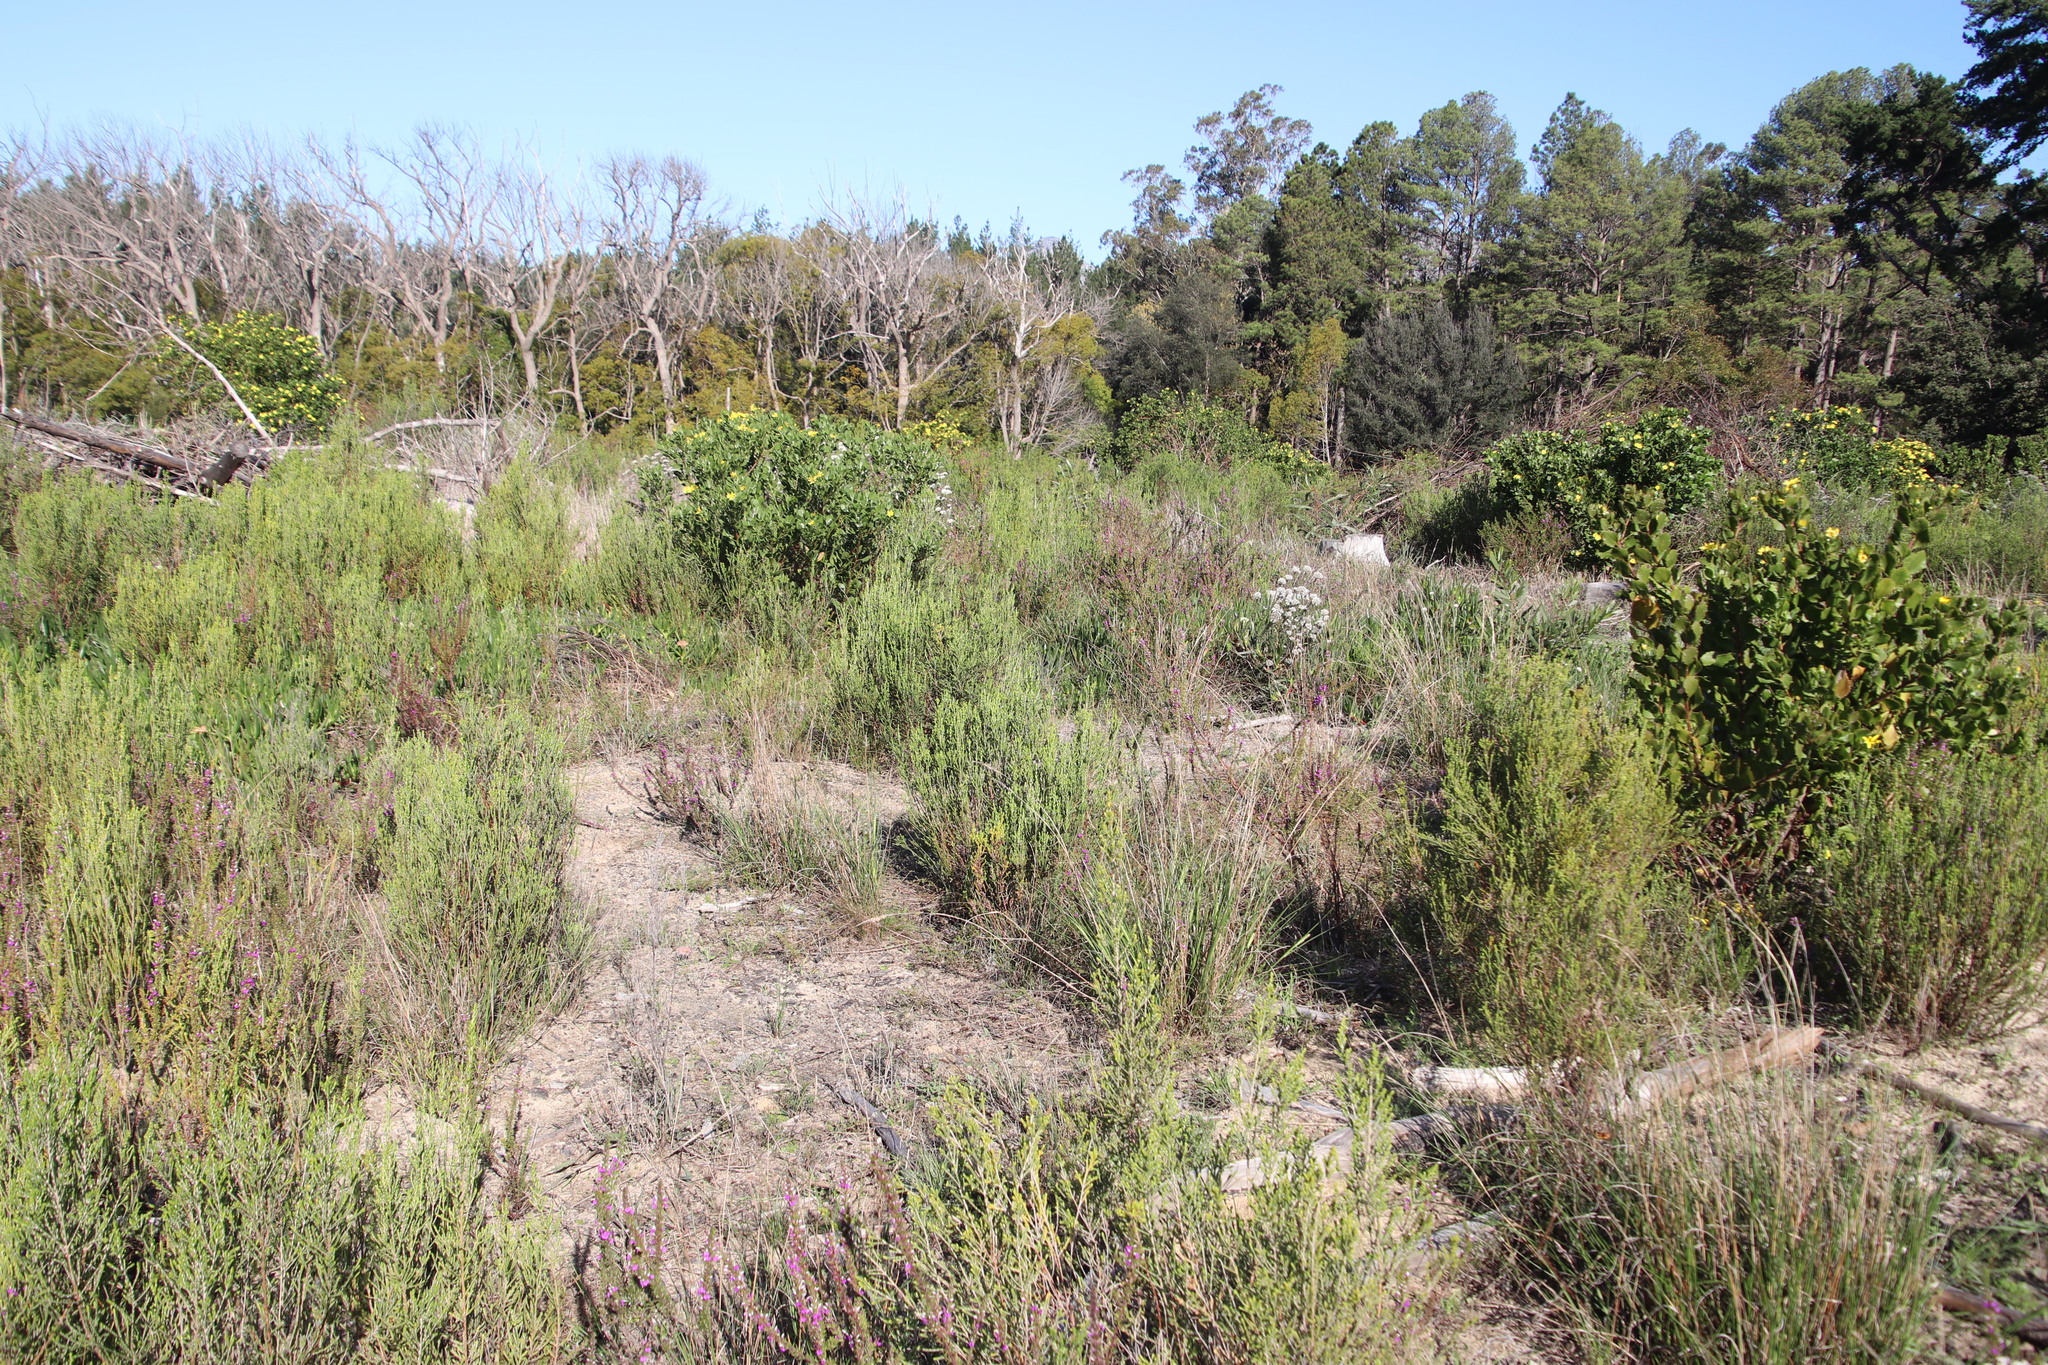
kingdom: Plantae
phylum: Tracheophyta
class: Magnoliopsida
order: Malvales
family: Thymelaeaceae
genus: Passerina
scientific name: Passerina corymbosa
